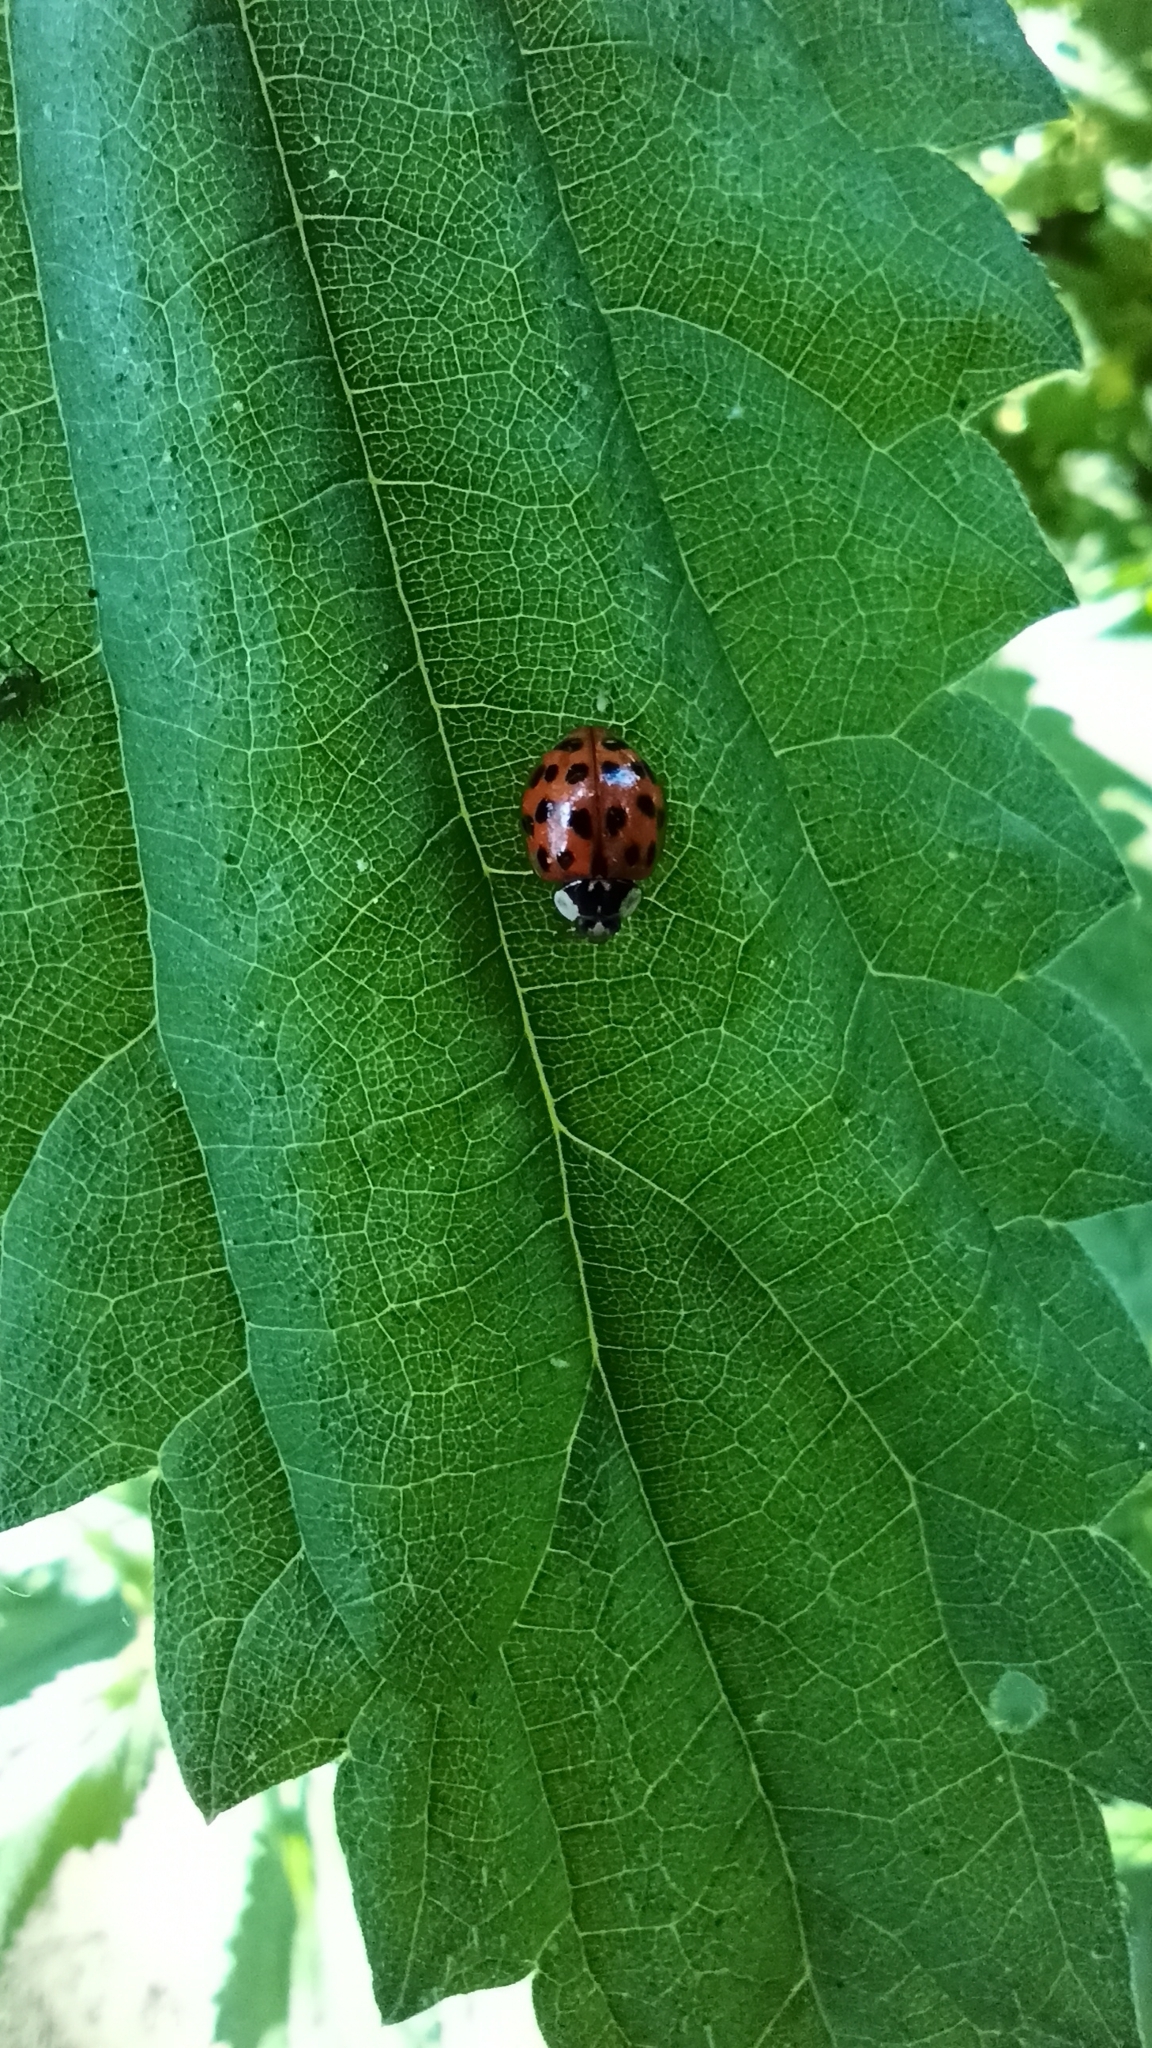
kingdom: Animalia
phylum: Arthropoda
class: Insecta
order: Coleoptera
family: Coccinellidae
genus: Harmonia
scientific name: Harmonia axyridis
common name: Harlequin ladybird
